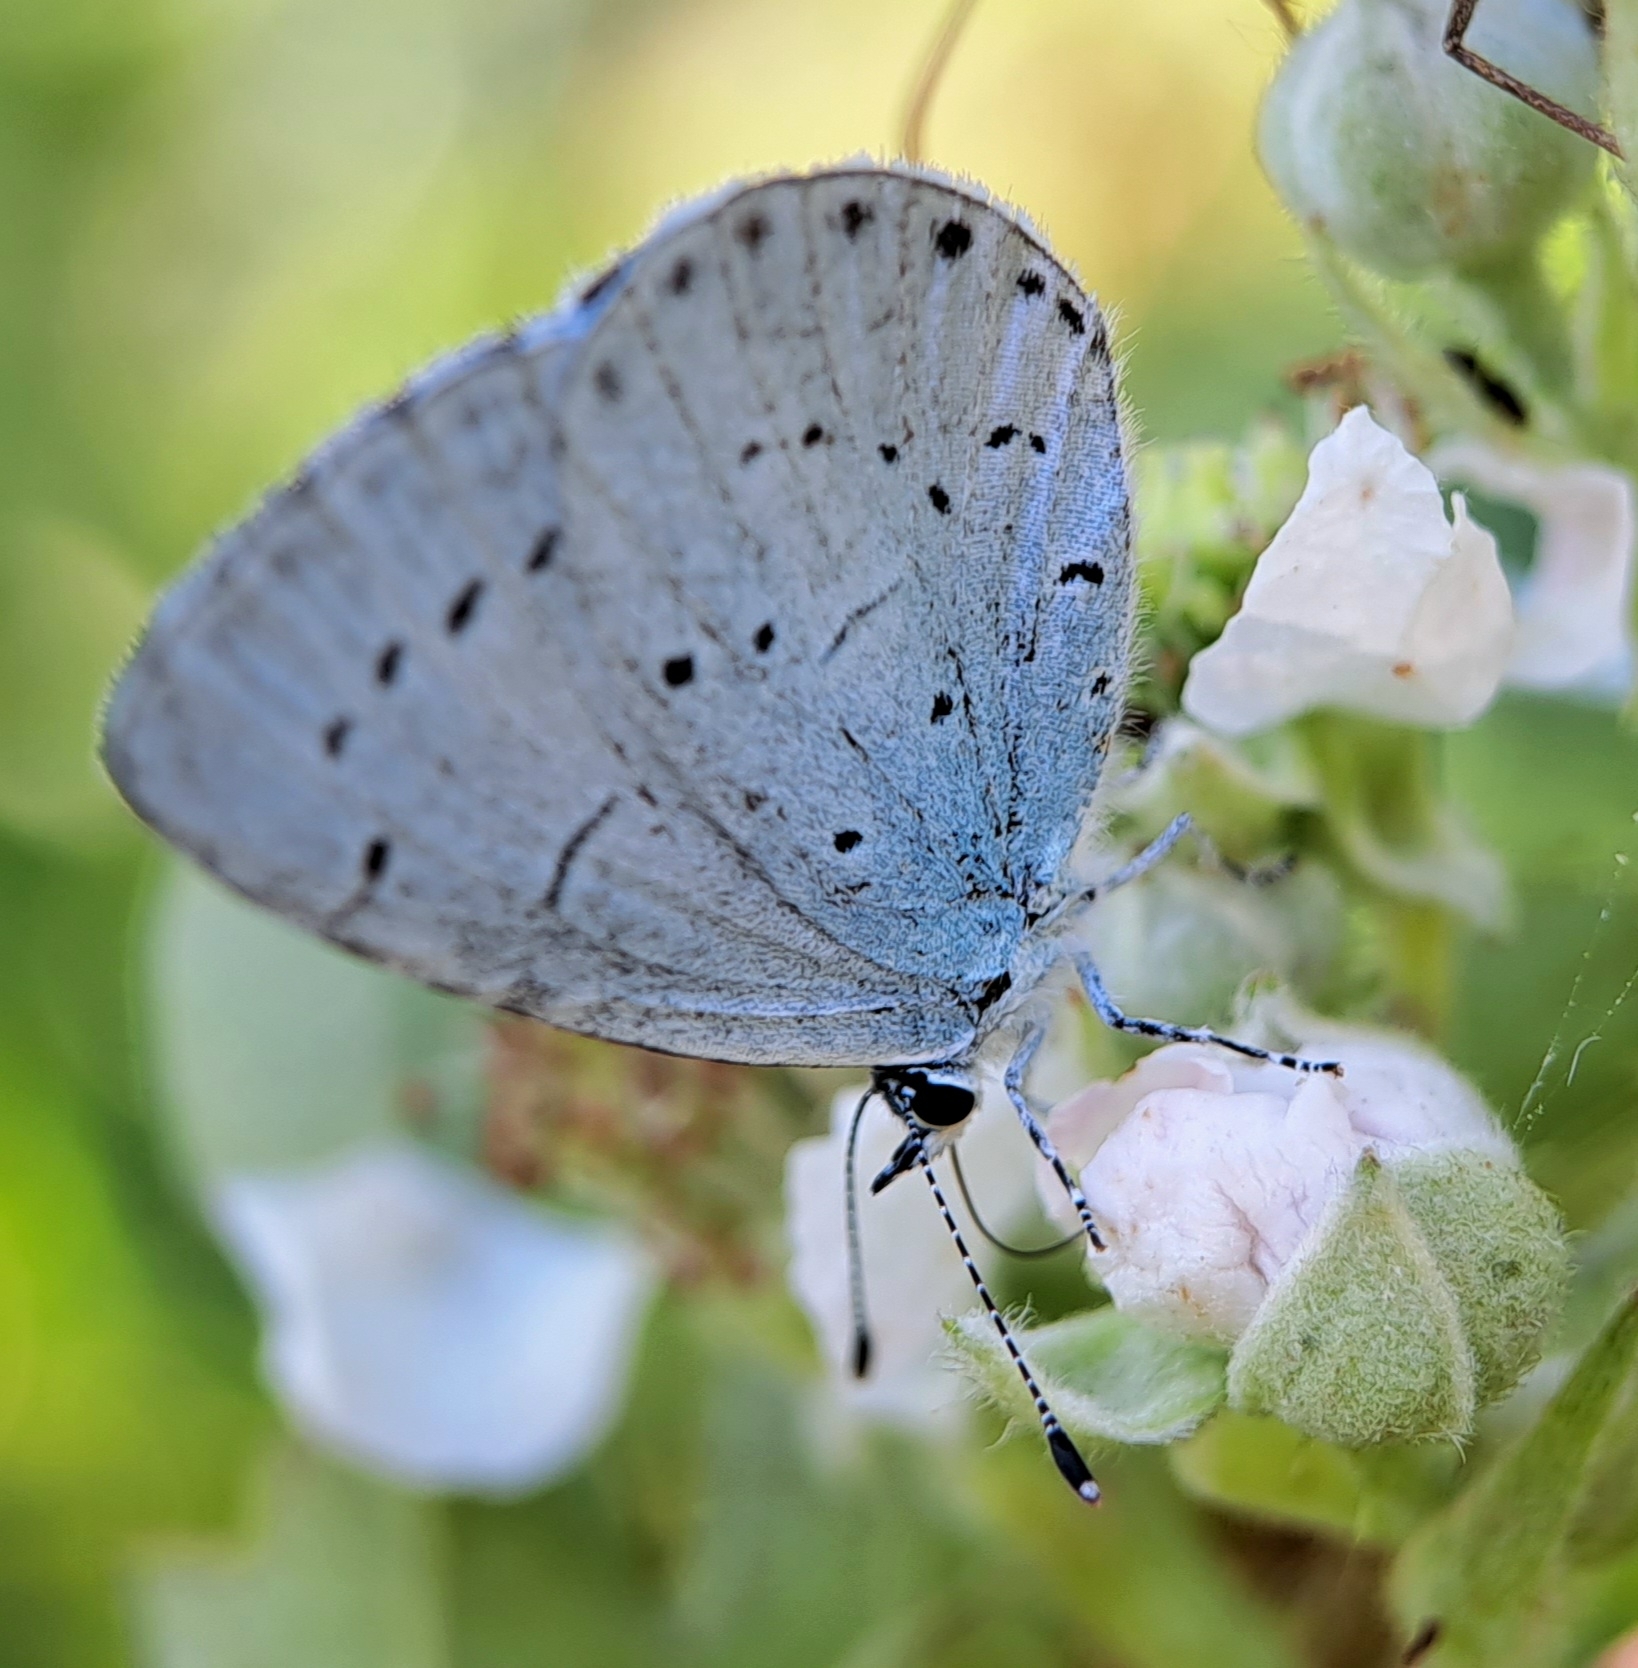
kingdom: Animalia
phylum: Arthropoda
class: Insecta
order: Lepidoptera
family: Lycaenidae
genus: Celastrina
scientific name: Celastrina argiolus
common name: Holly blue
